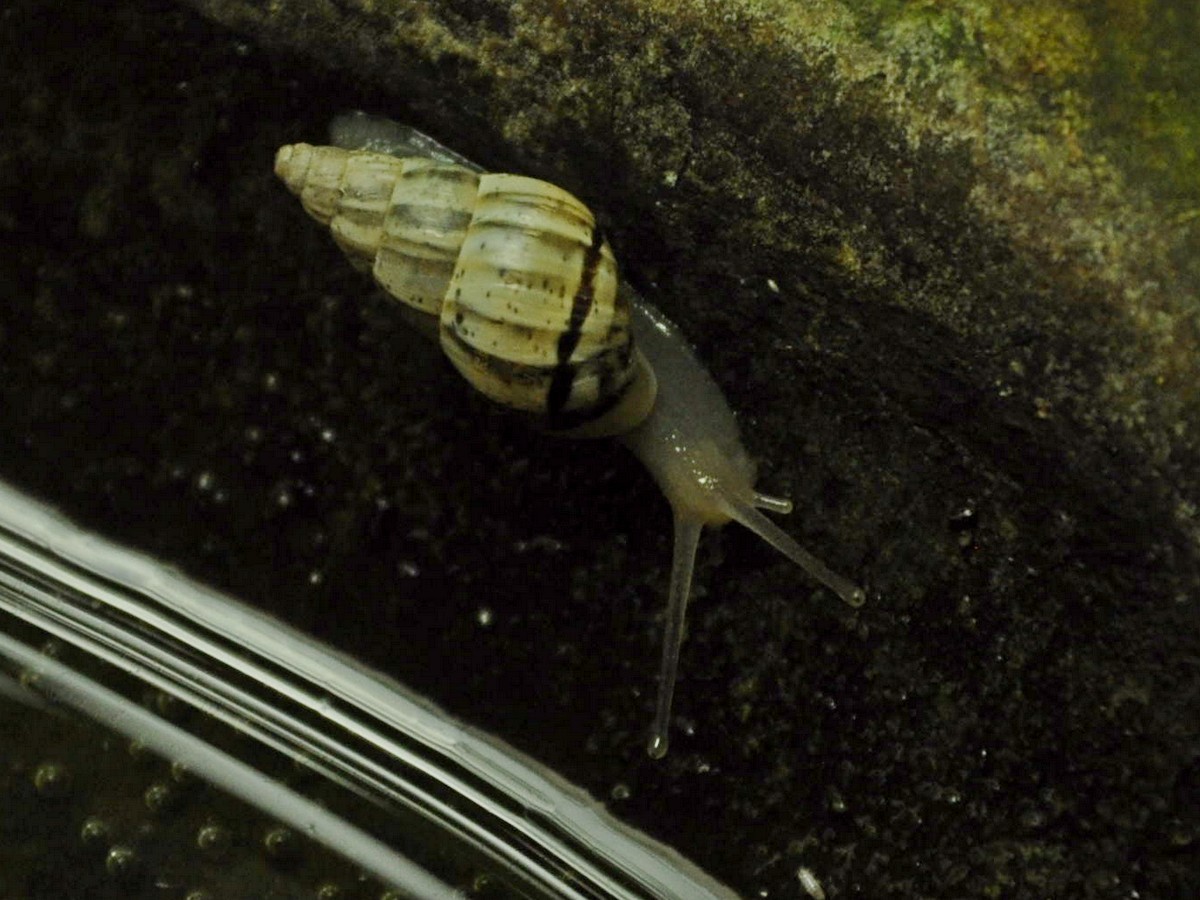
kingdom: Animalia
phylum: Mollusca
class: Gastropoda
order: Stylommatophora
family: Cerastidae
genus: Rachis
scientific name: Rachis punctata
